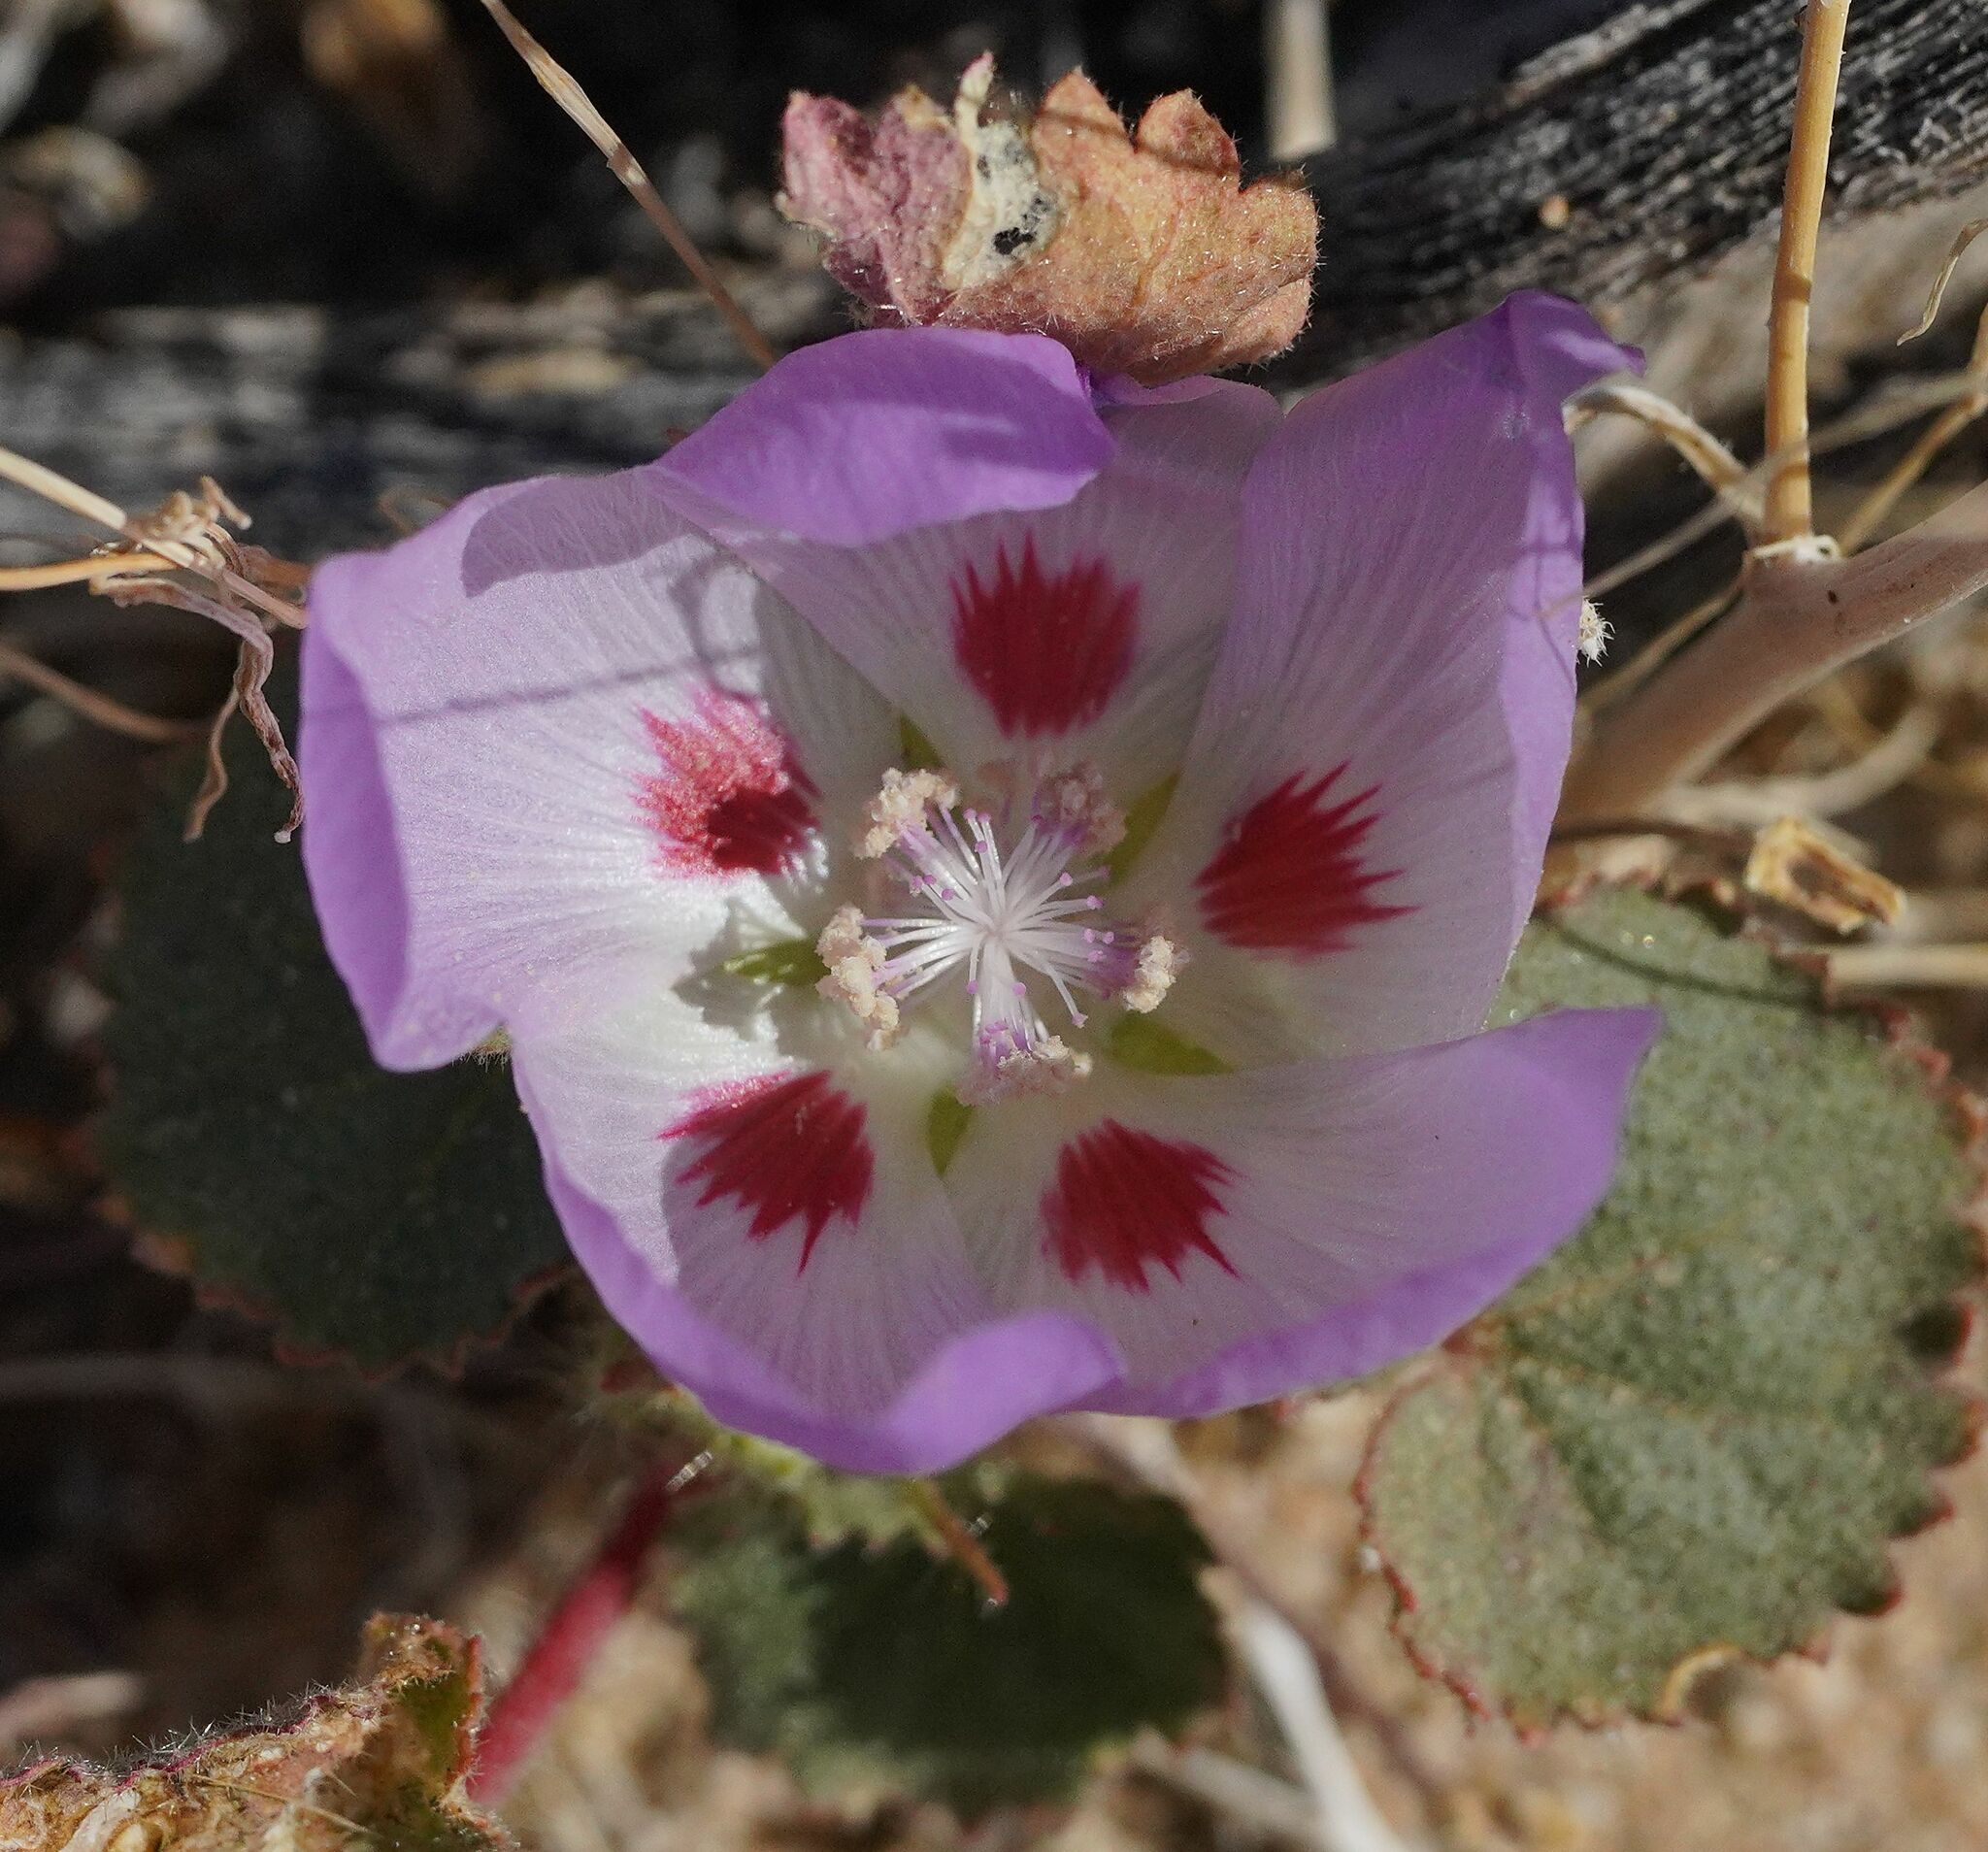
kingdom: Plantae
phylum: Tracheophyta
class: Magnoliopsida
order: Malvales
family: Malvaceae
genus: Eremalche
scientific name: Eremalche rotundifolia
